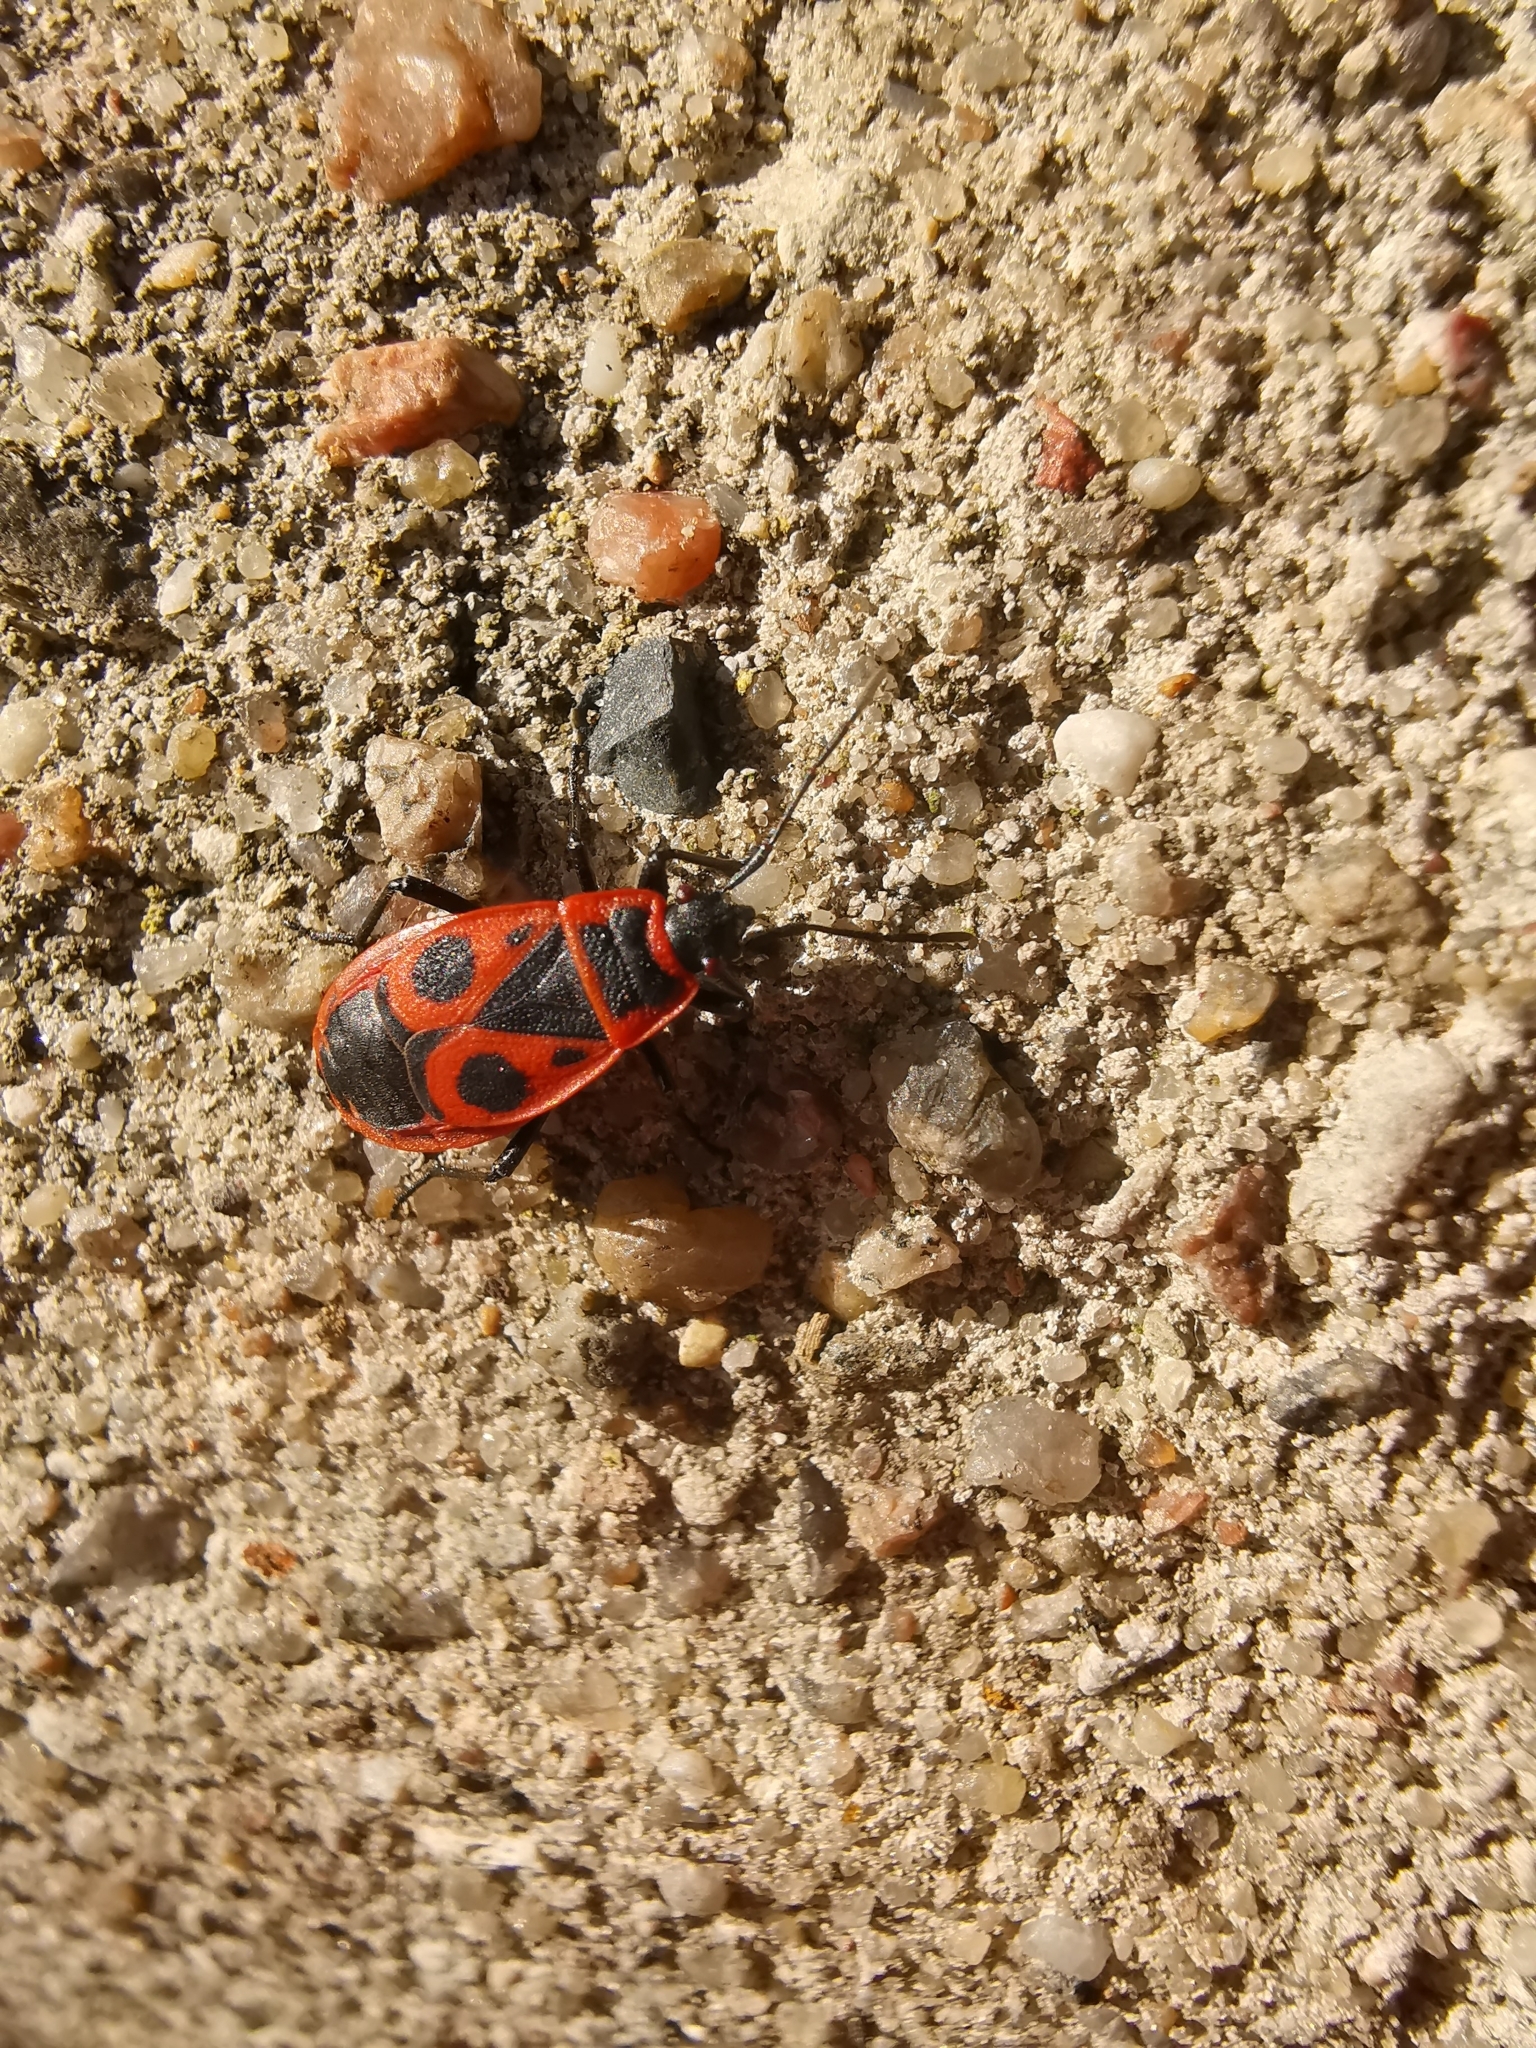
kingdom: Animalia
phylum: Arthropoda
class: Insecta
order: Hemiptera
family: Pyrrhocoridae
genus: Pyrrhocoris
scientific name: Pyrrhocoris apterus
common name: Firebug
